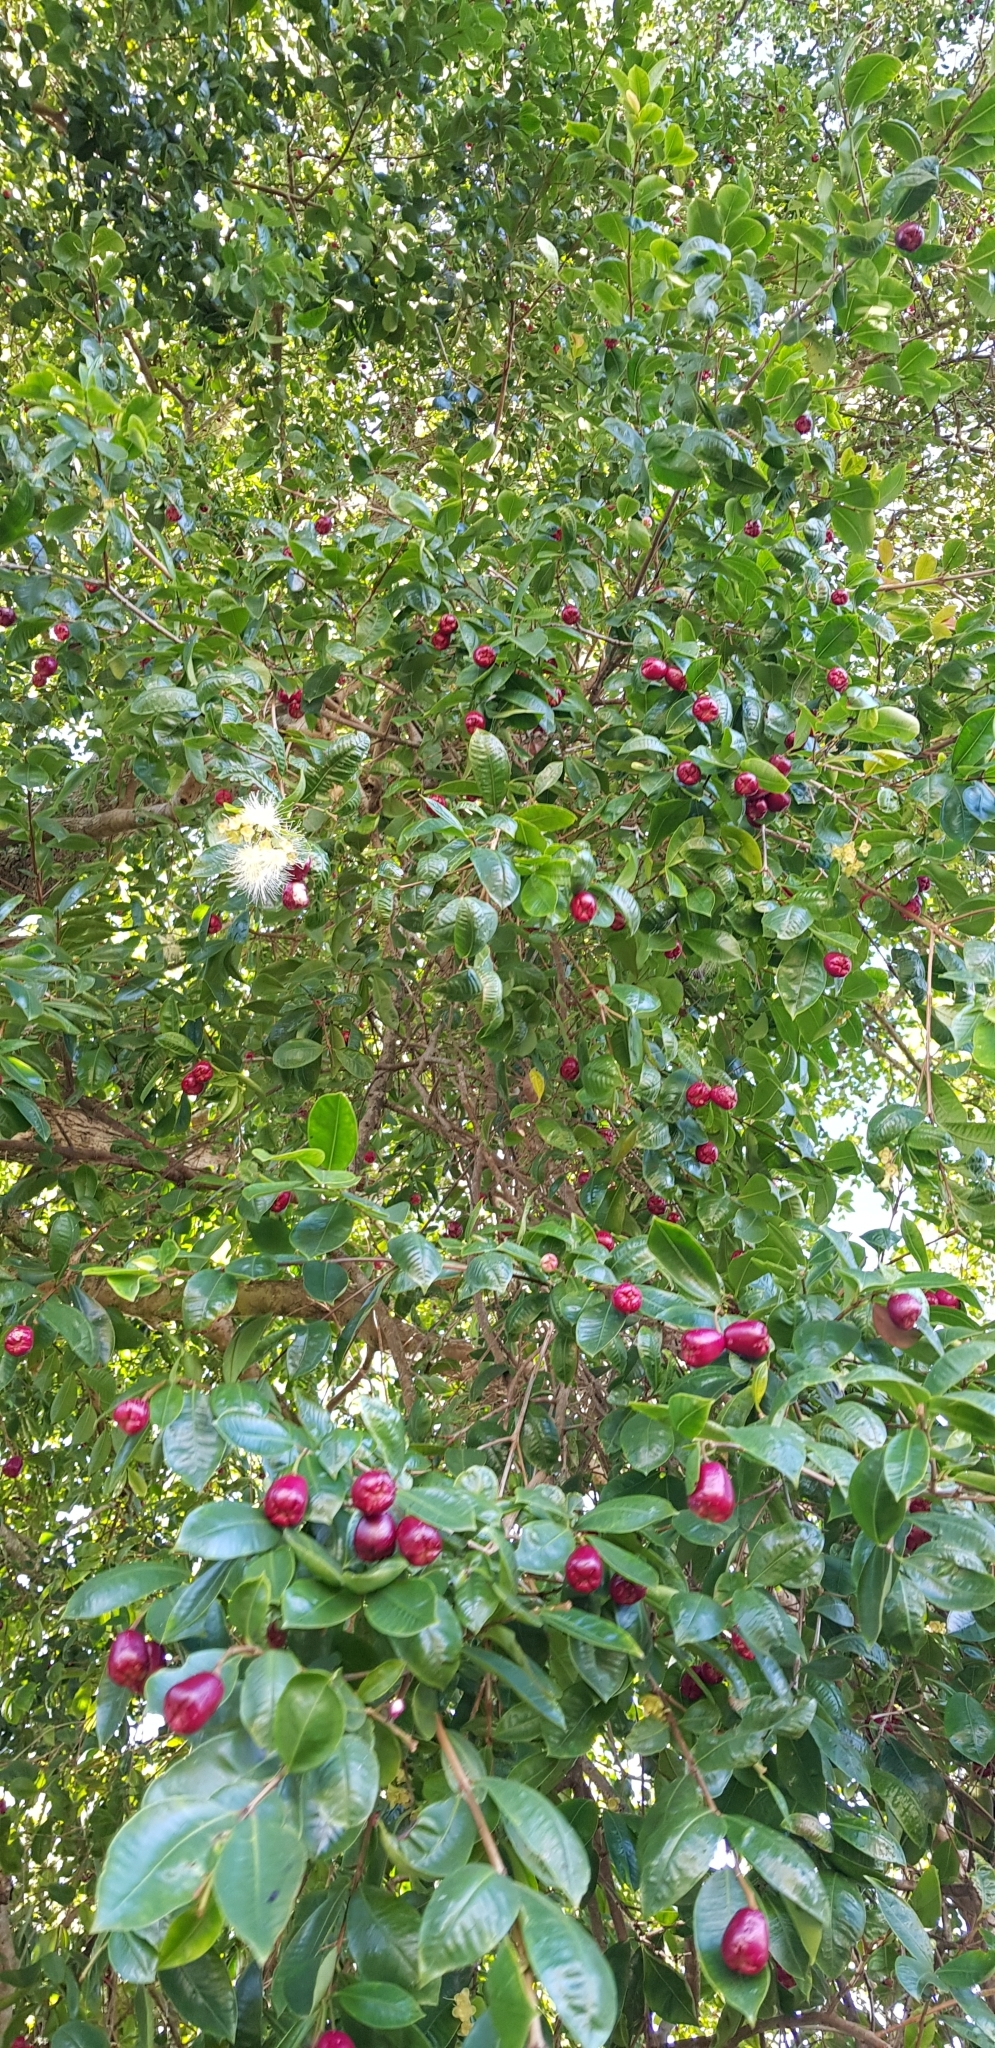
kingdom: Plantae
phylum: Tracheophyta
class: Magnoliopsida
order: Myrtales
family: Myrtaceae
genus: Syzygium
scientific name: Syzygium paniculatum
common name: Magenta lilly-pilly
